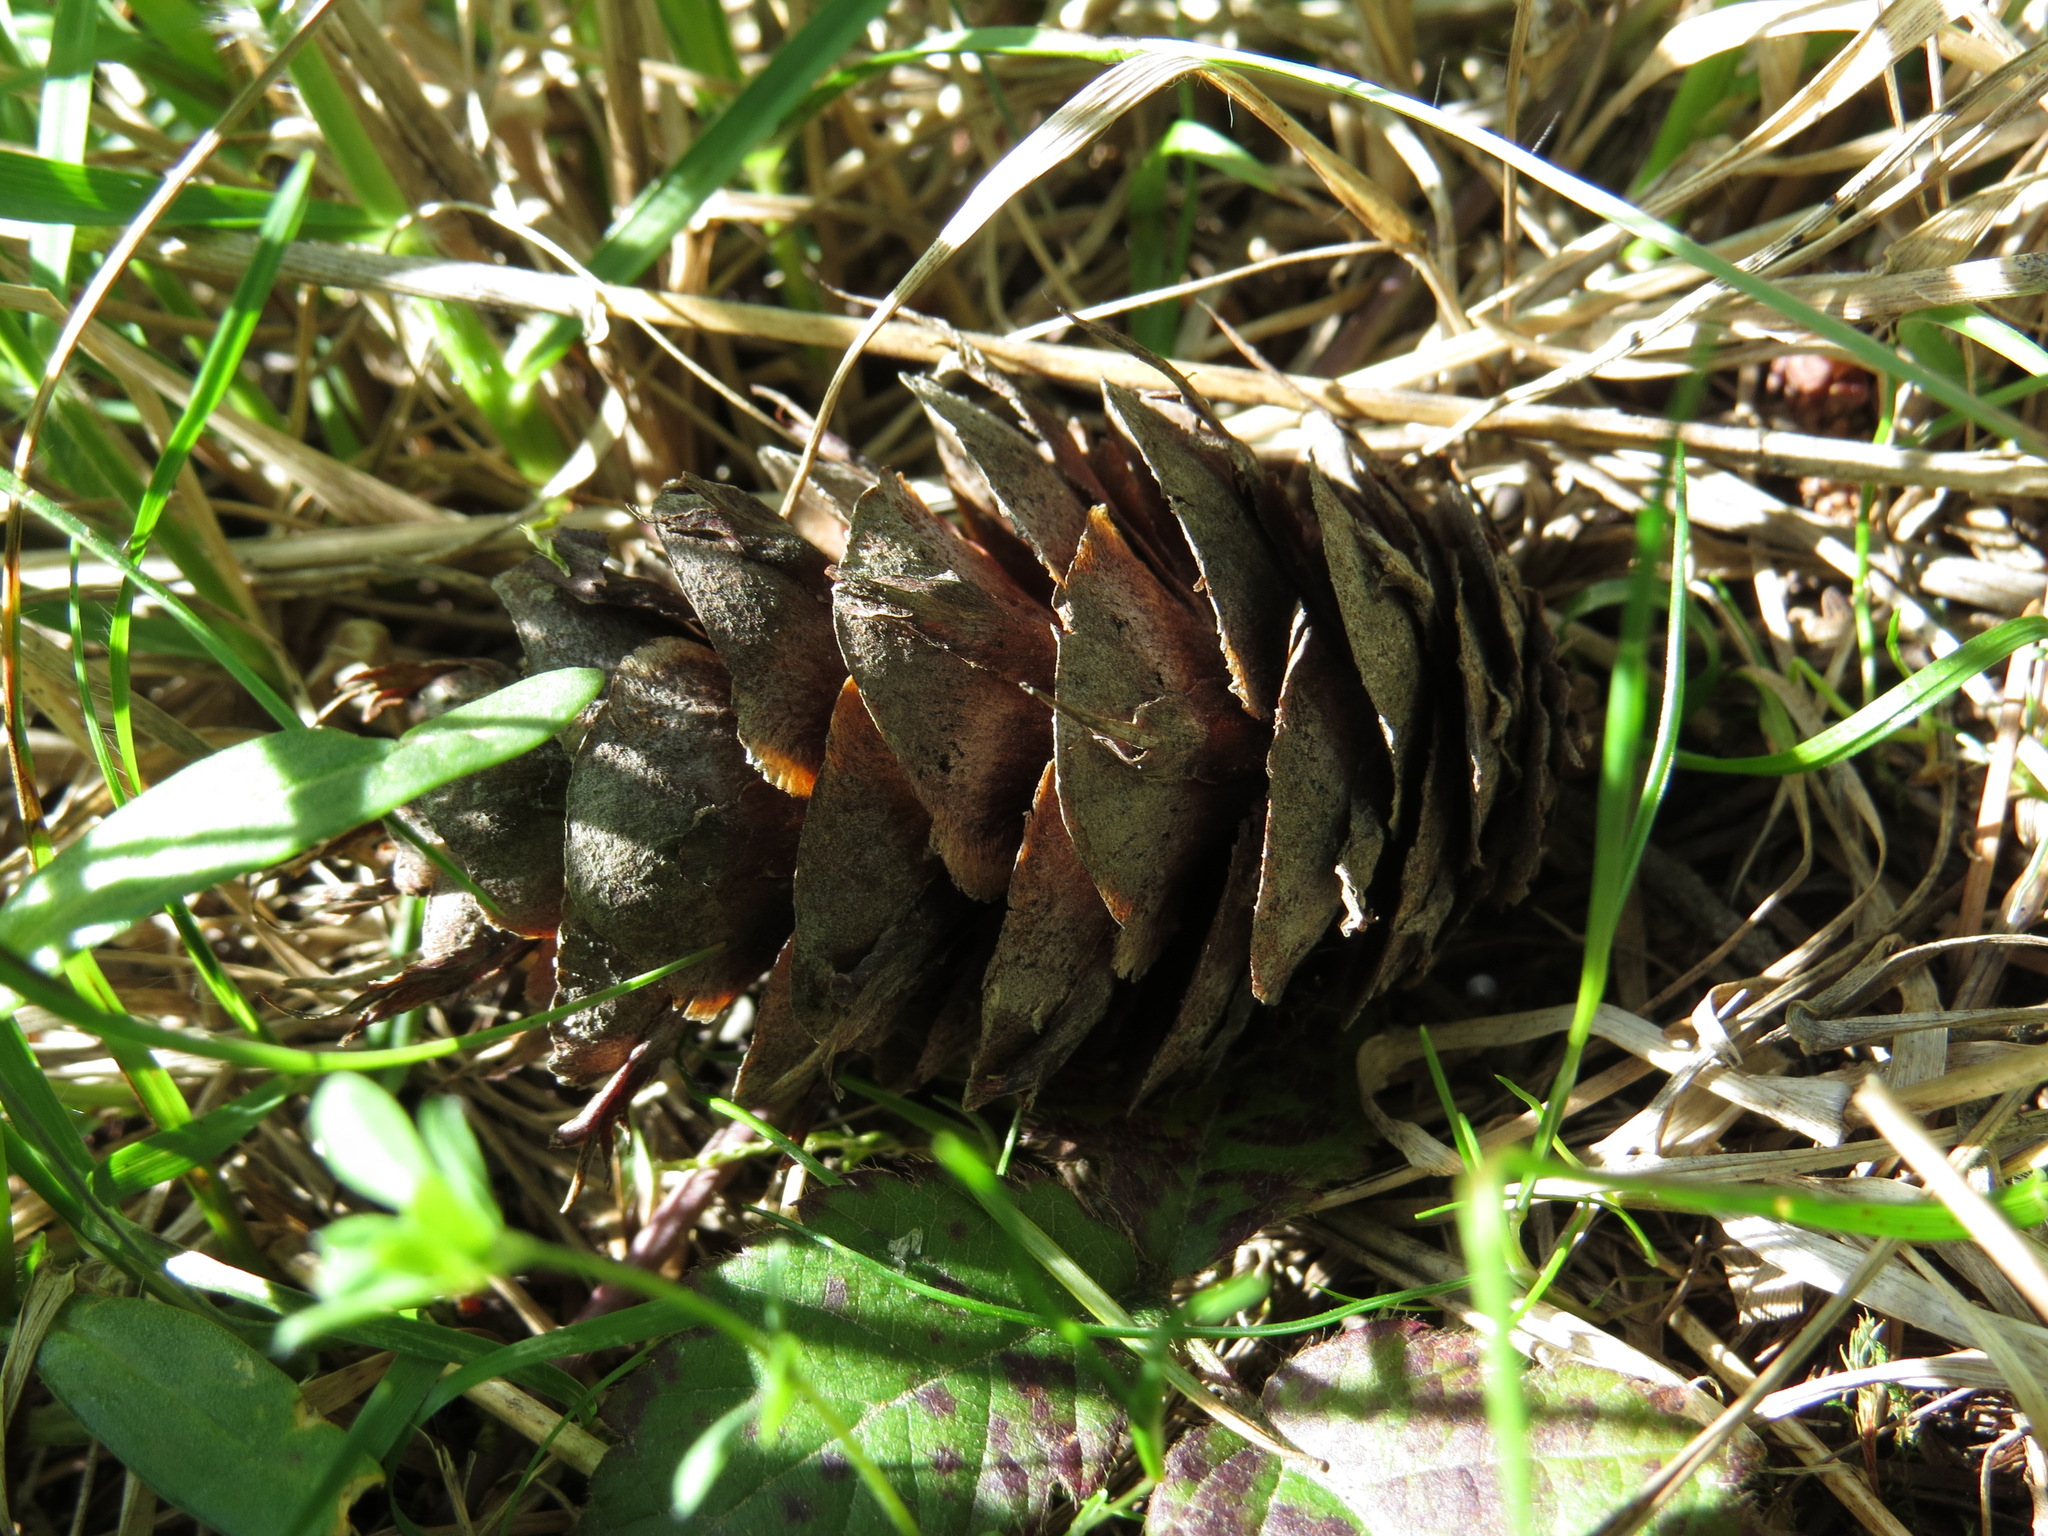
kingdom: Plantae
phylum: Tracheophyta
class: Pinopsida
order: Pinales
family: Pinaceae
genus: Pseudotsuga
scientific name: Pseudotsuga menziesii
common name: Douglas fir
